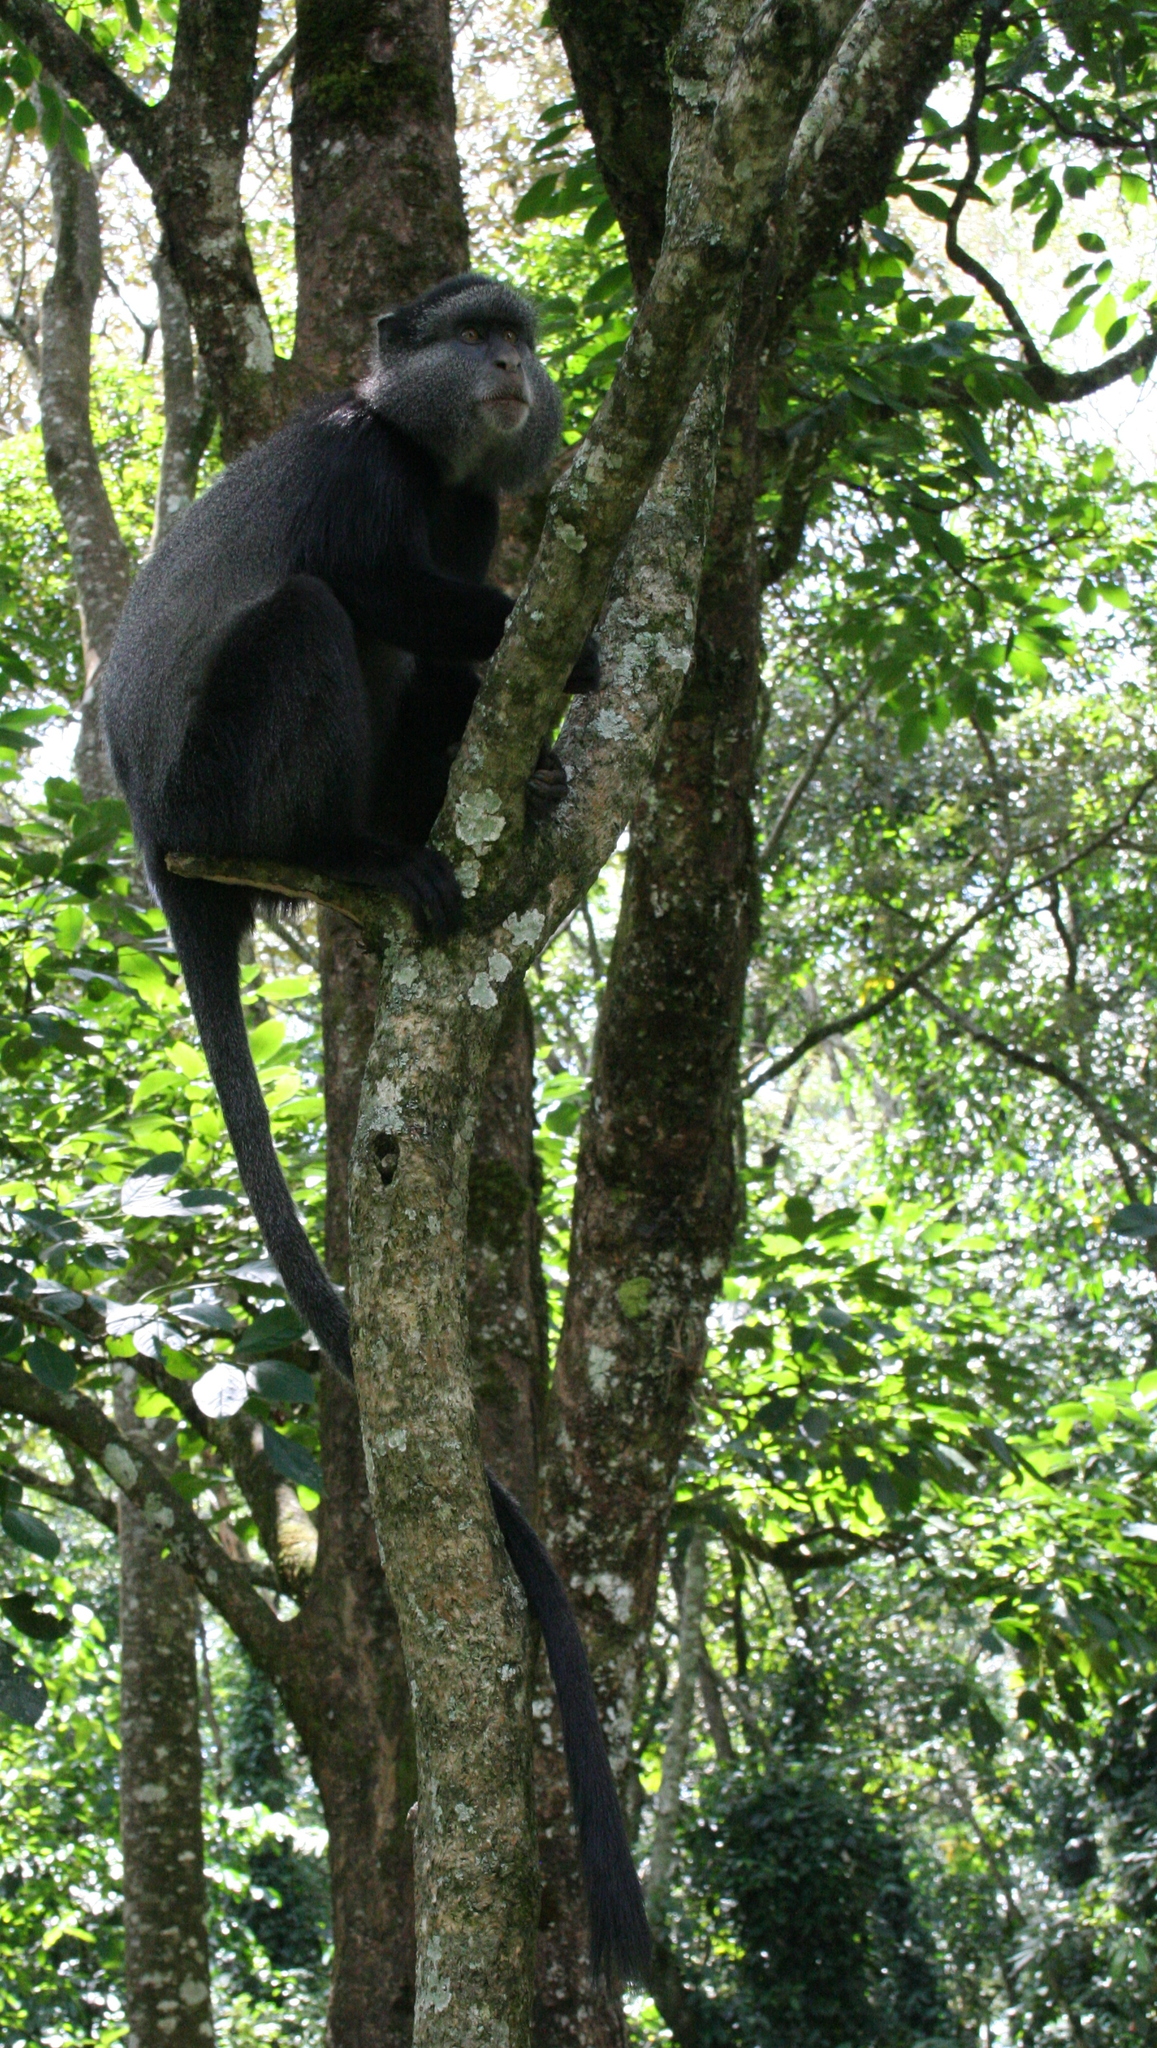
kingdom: Animalia
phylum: Chordata
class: Mammalia
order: Primates
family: Cercopithecidae
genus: Cercopithecus
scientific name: Cercopithecus mitis
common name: Blue monkey
